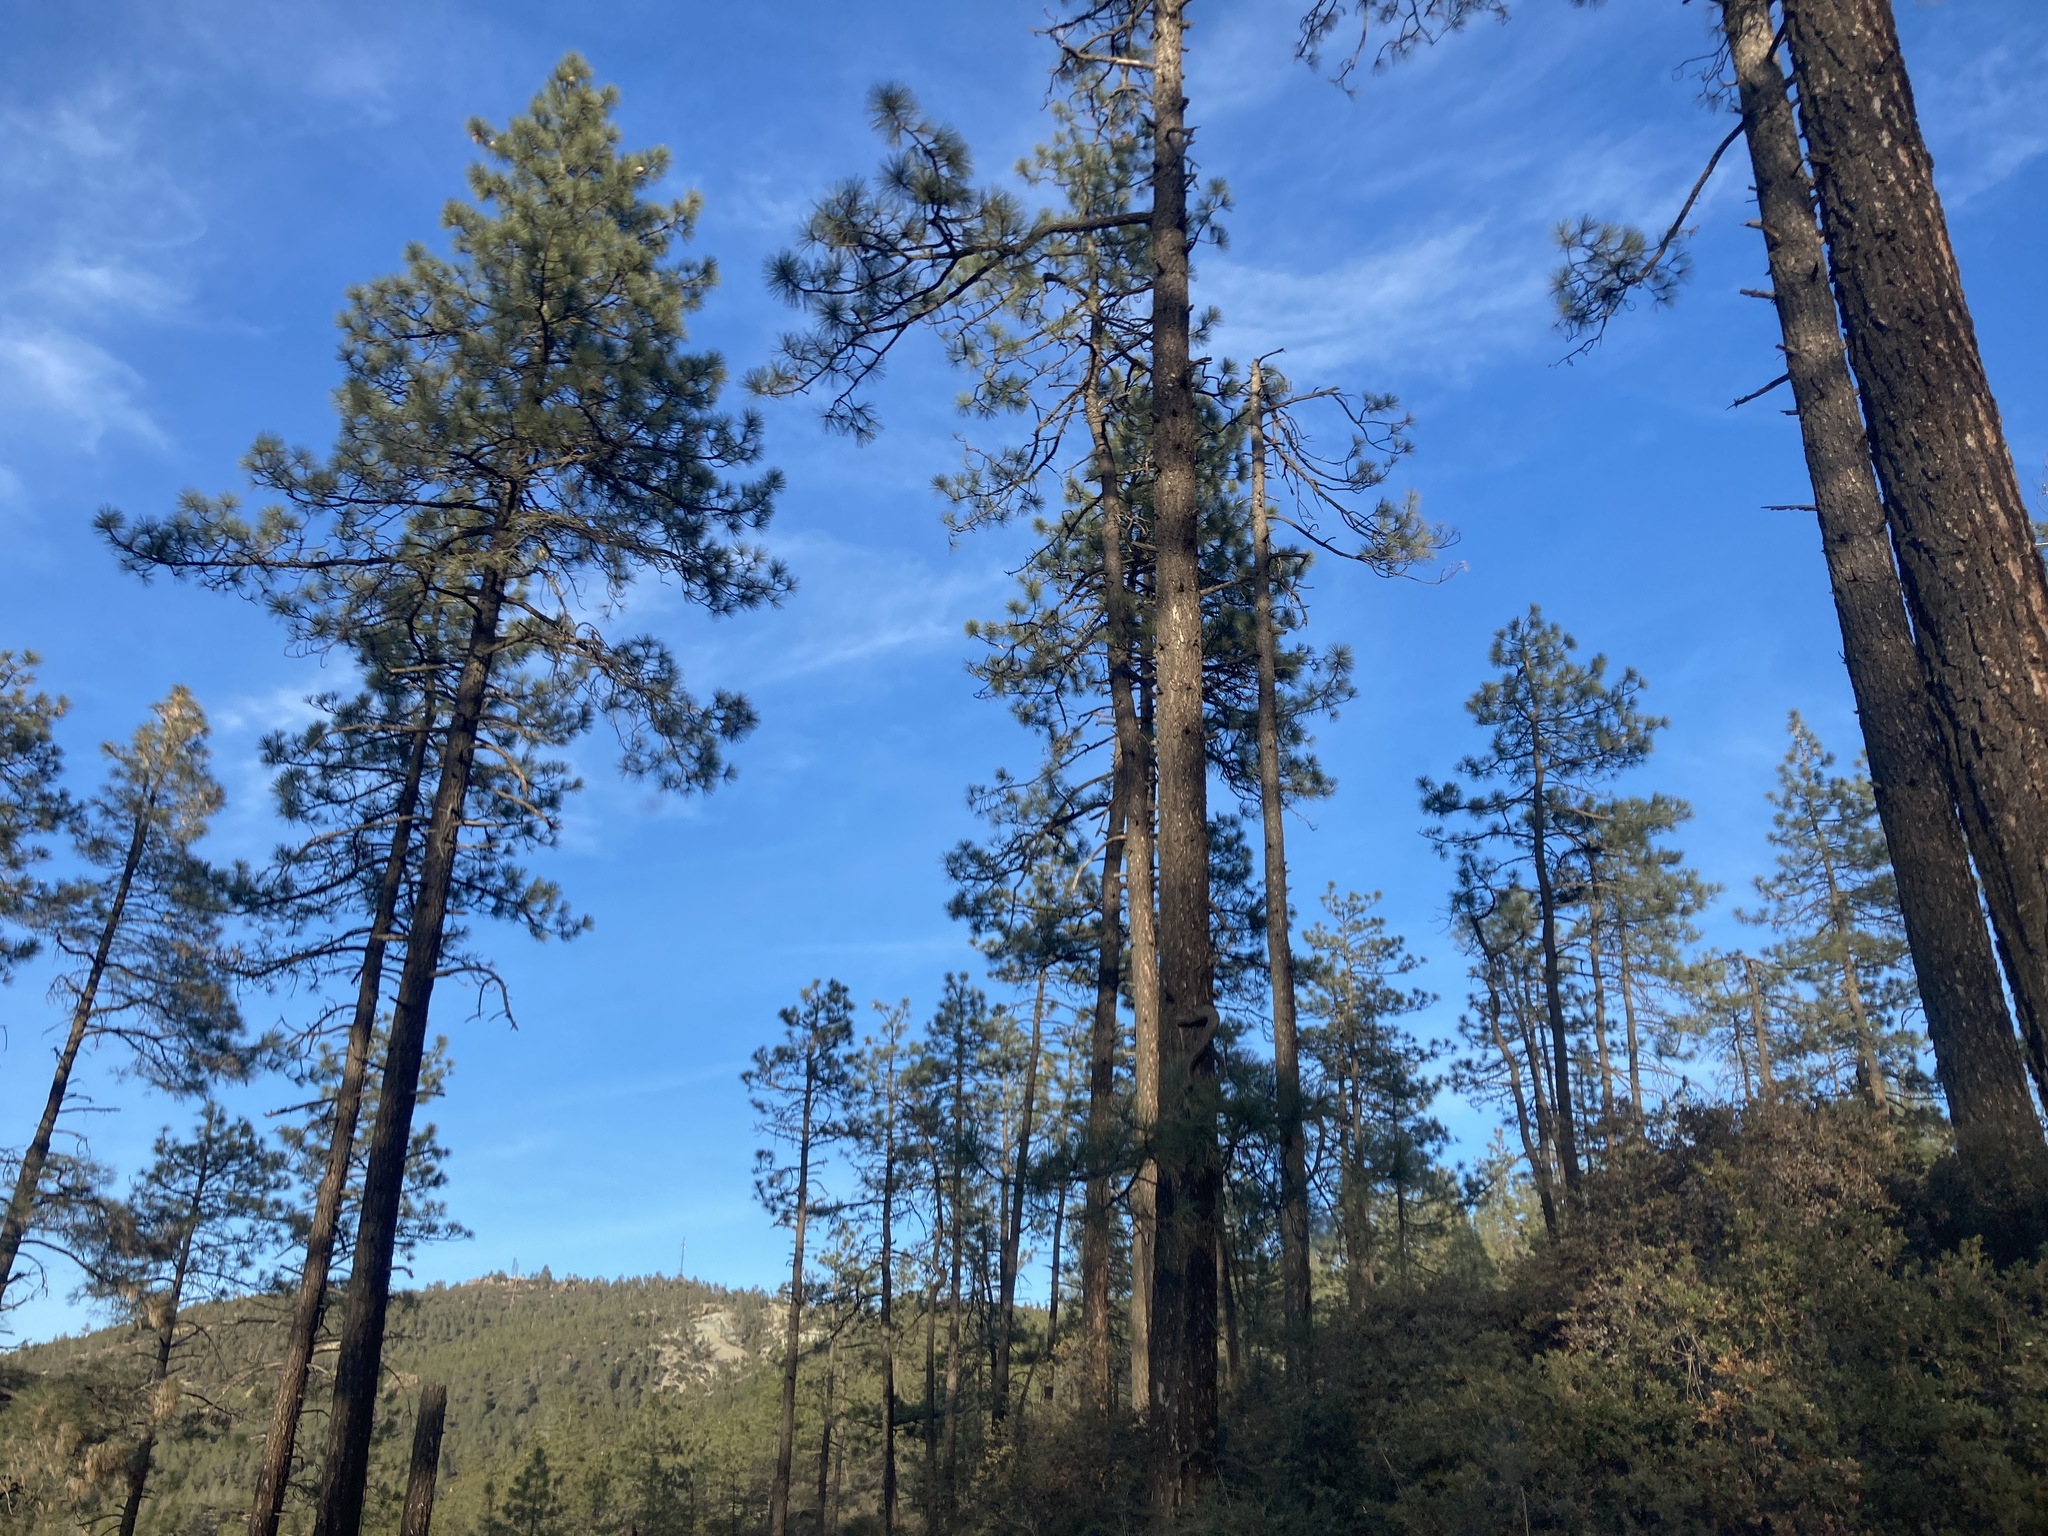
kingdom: Plantae
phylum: Tracheophyta
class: Pinopsida
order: Pinales
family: Pinaceae
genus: Pinus
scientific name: Pinus jeffreyi
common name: Jeffrey pine
